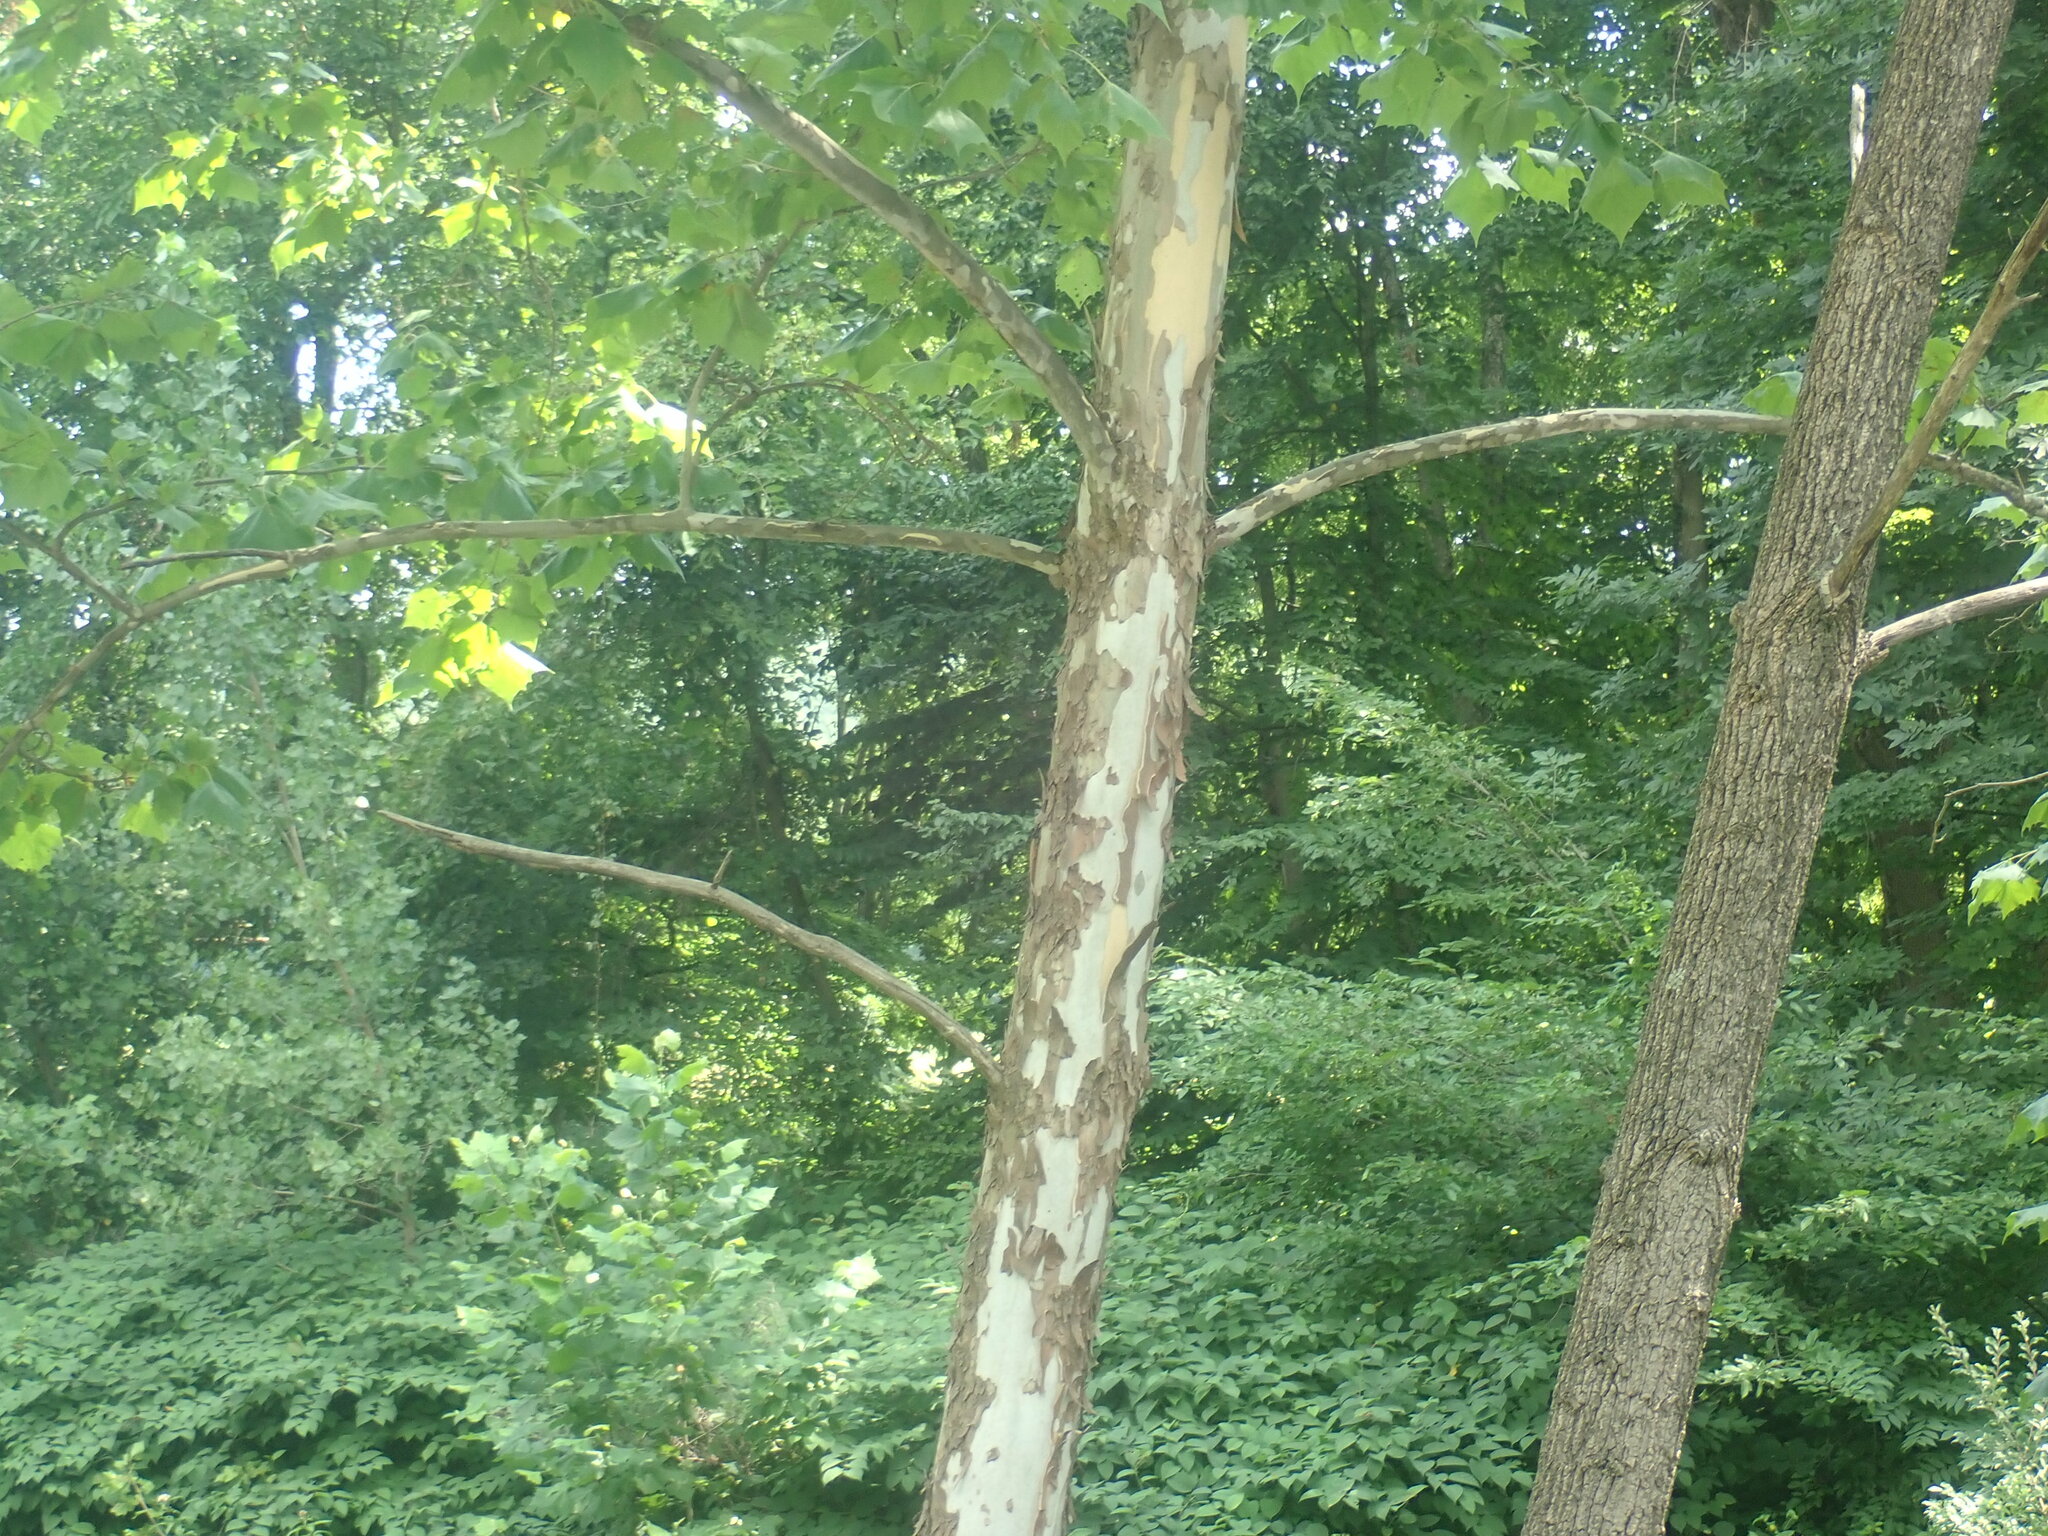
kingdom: Plantae
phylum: Tracheophyta
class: Magnoliopsida
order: Proteales
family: Platanaceae
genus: Platanus
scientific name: Platanus occidentalis
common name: American sycamore
